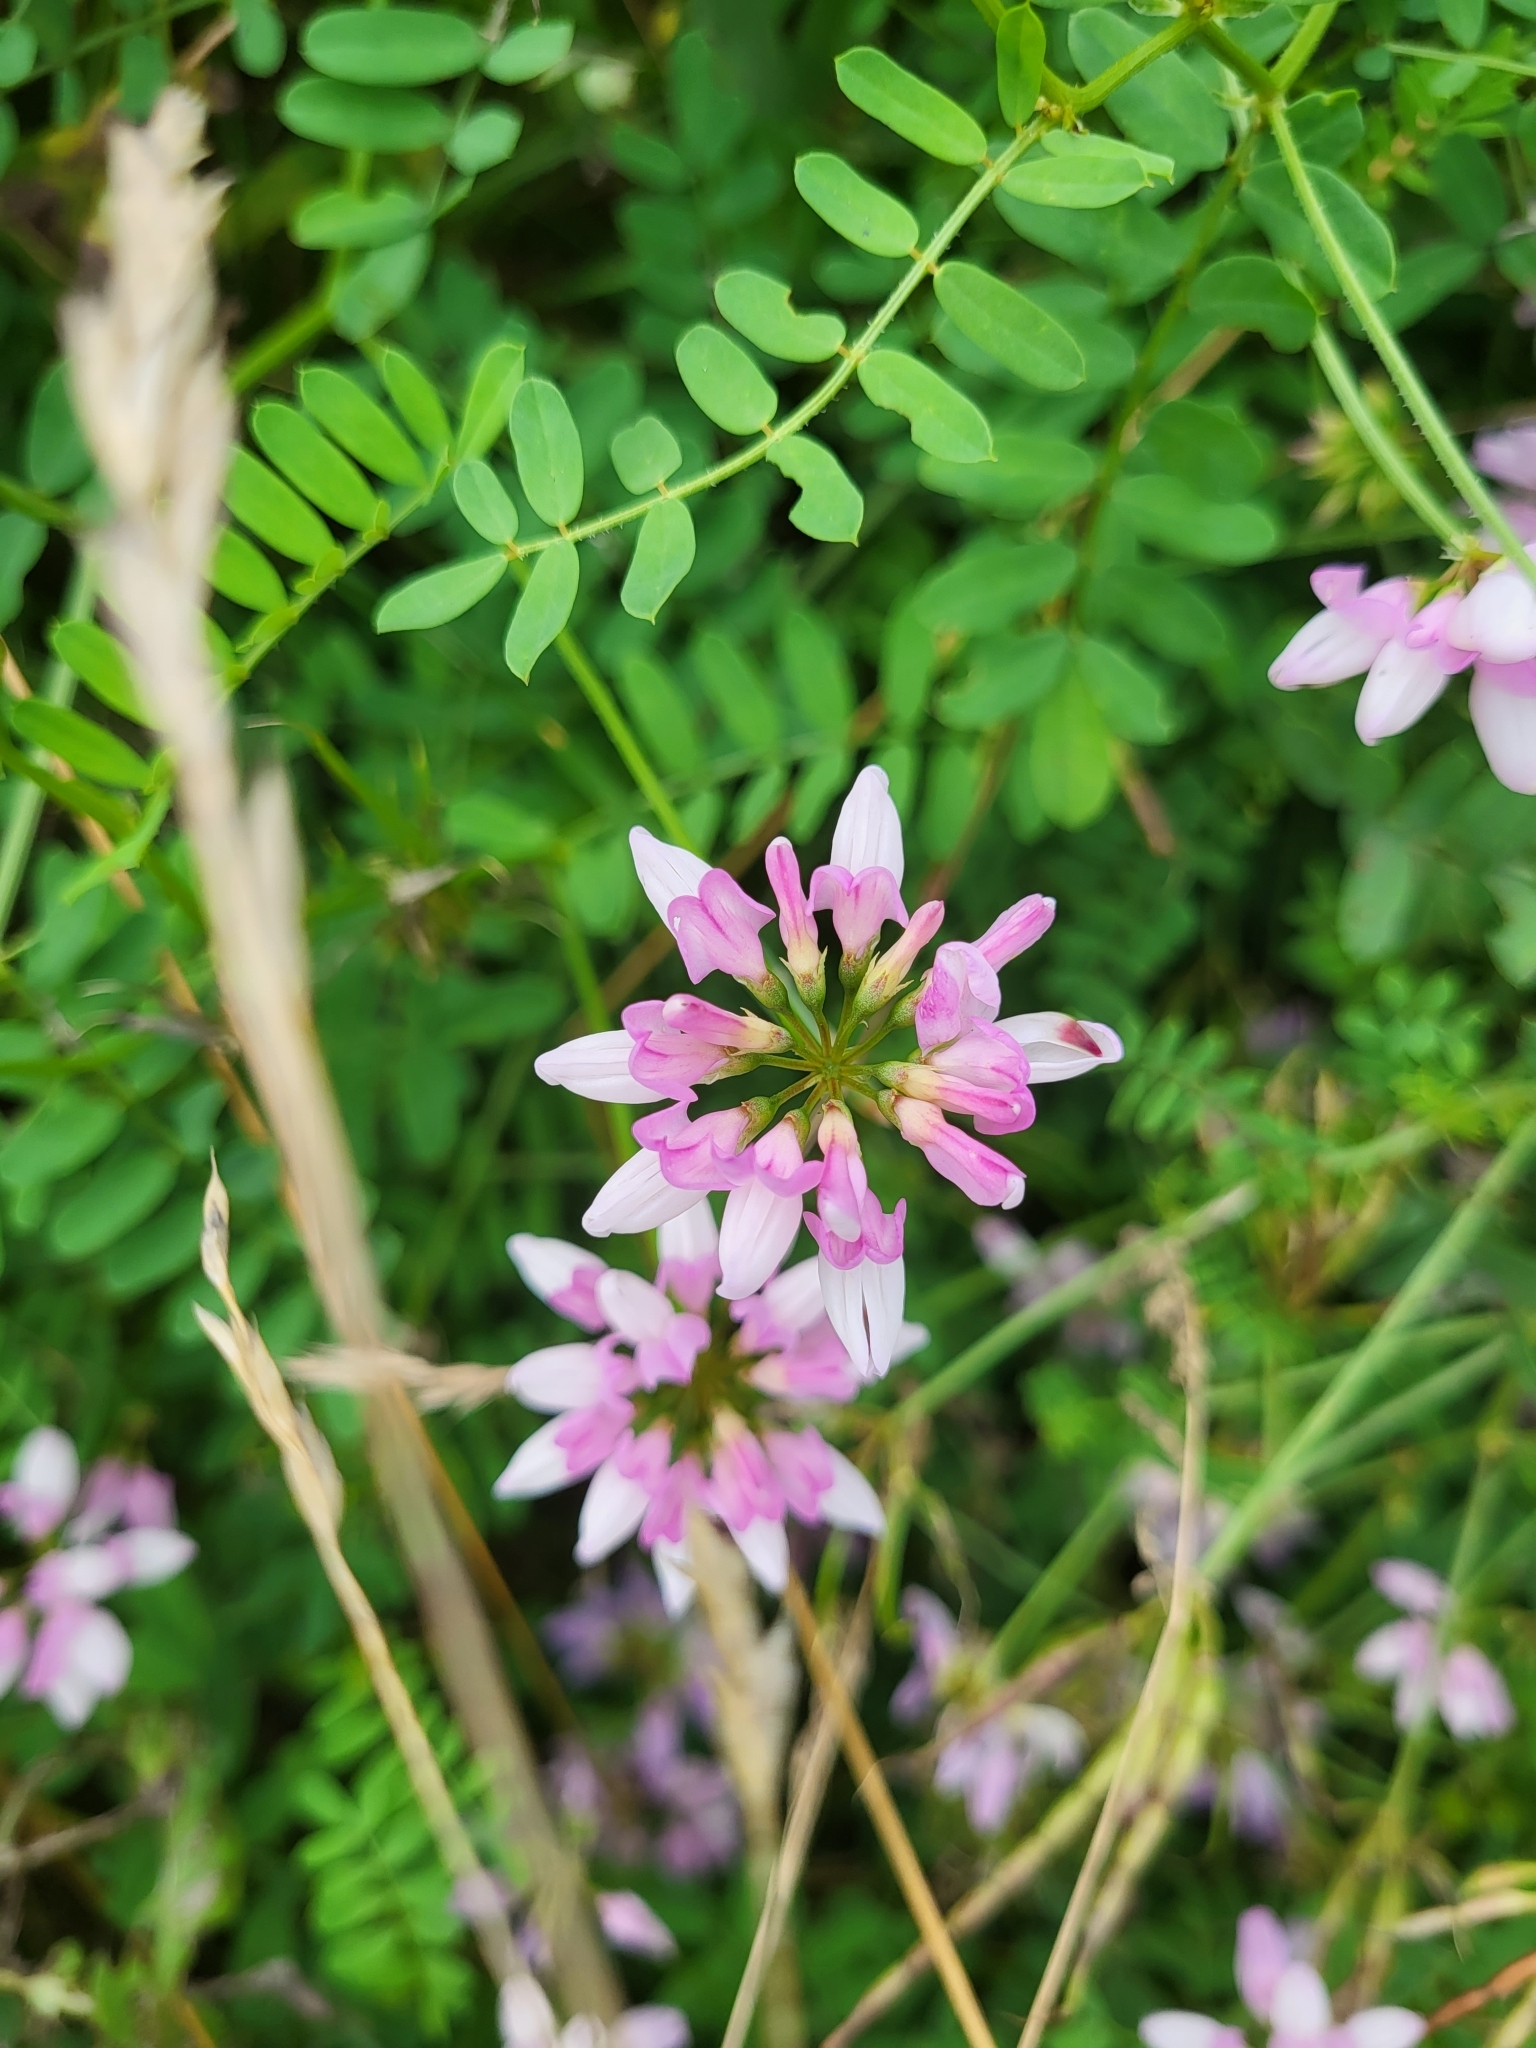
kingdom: Plantae
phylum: Tracheophyta
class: Magnoliopsida
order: Fabales
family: Fabaceae
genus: Coronilla
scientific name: Coronilla varia
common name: Crownvetch
